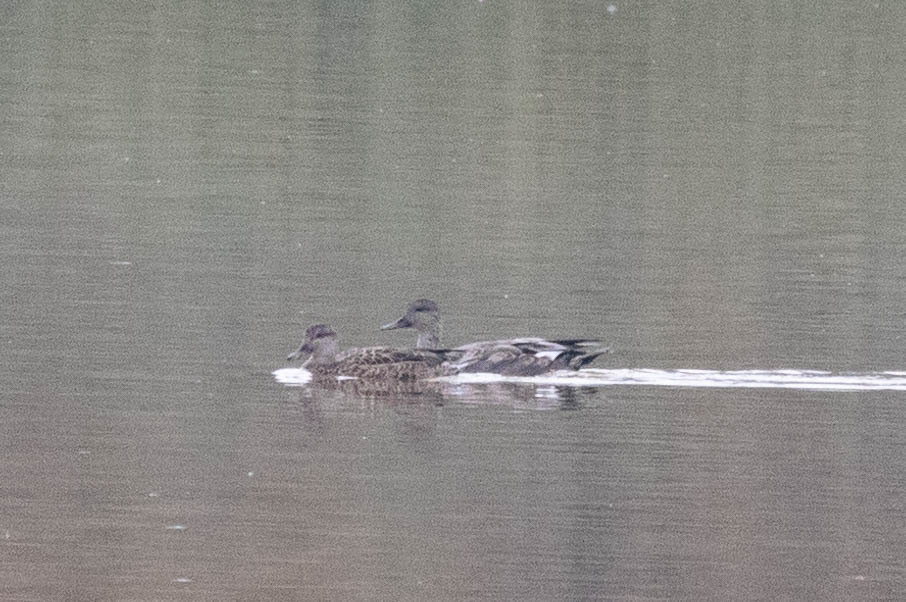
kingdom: Animalia
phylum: Chordata
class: Aves
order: Anseriformes
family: Anatidae
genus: Mareca
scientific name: Mareca strepera
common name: Gadwall
